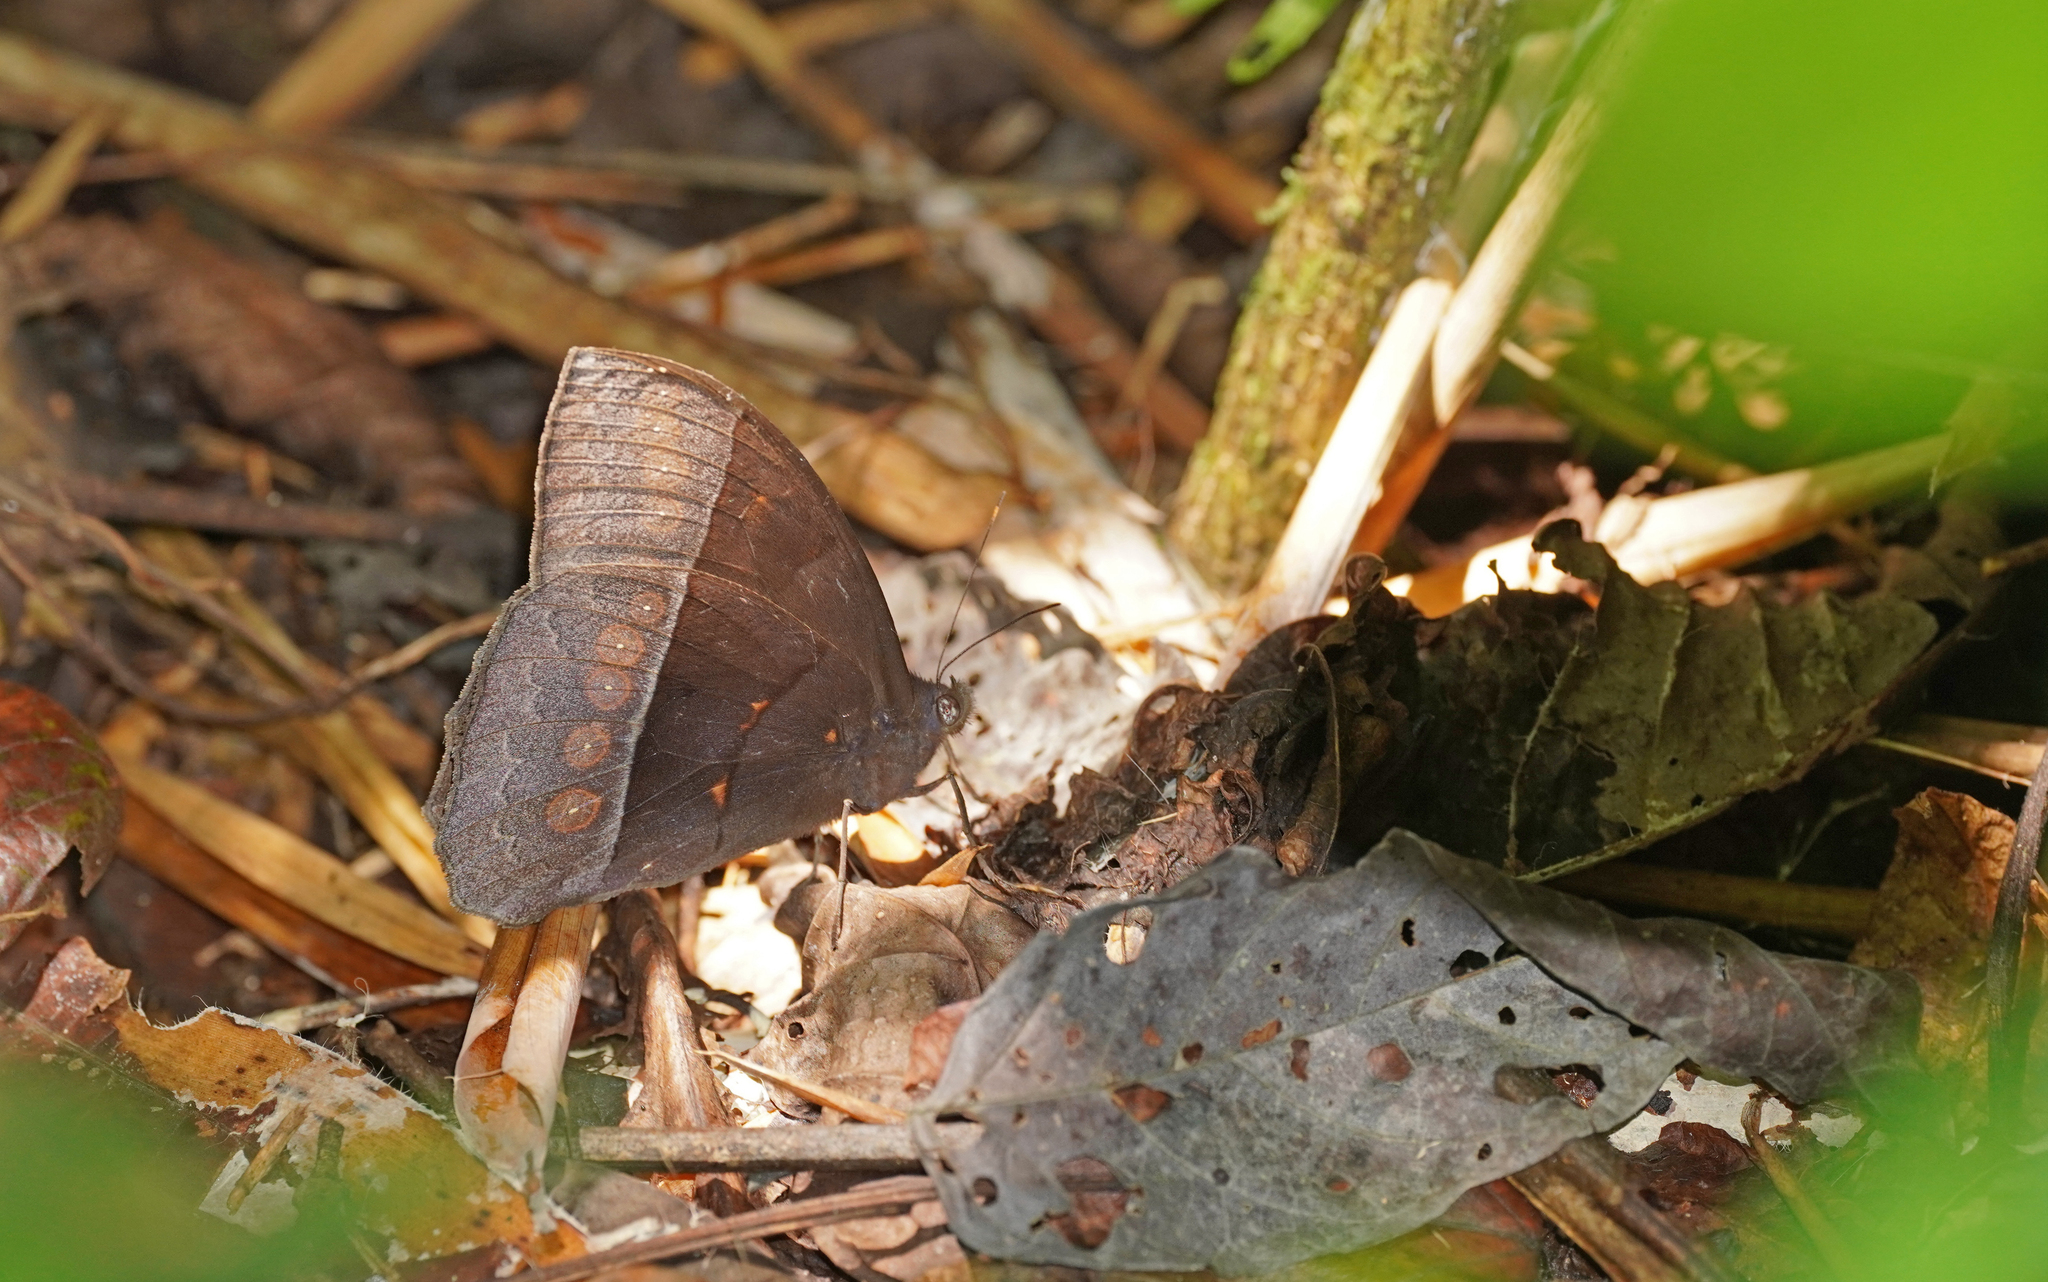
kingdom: Animalia
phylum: Arthropoda
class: Insecta
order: Lepidoptera
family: Nymphalidae
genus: Taygetis
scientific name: Taygetis oyapock
